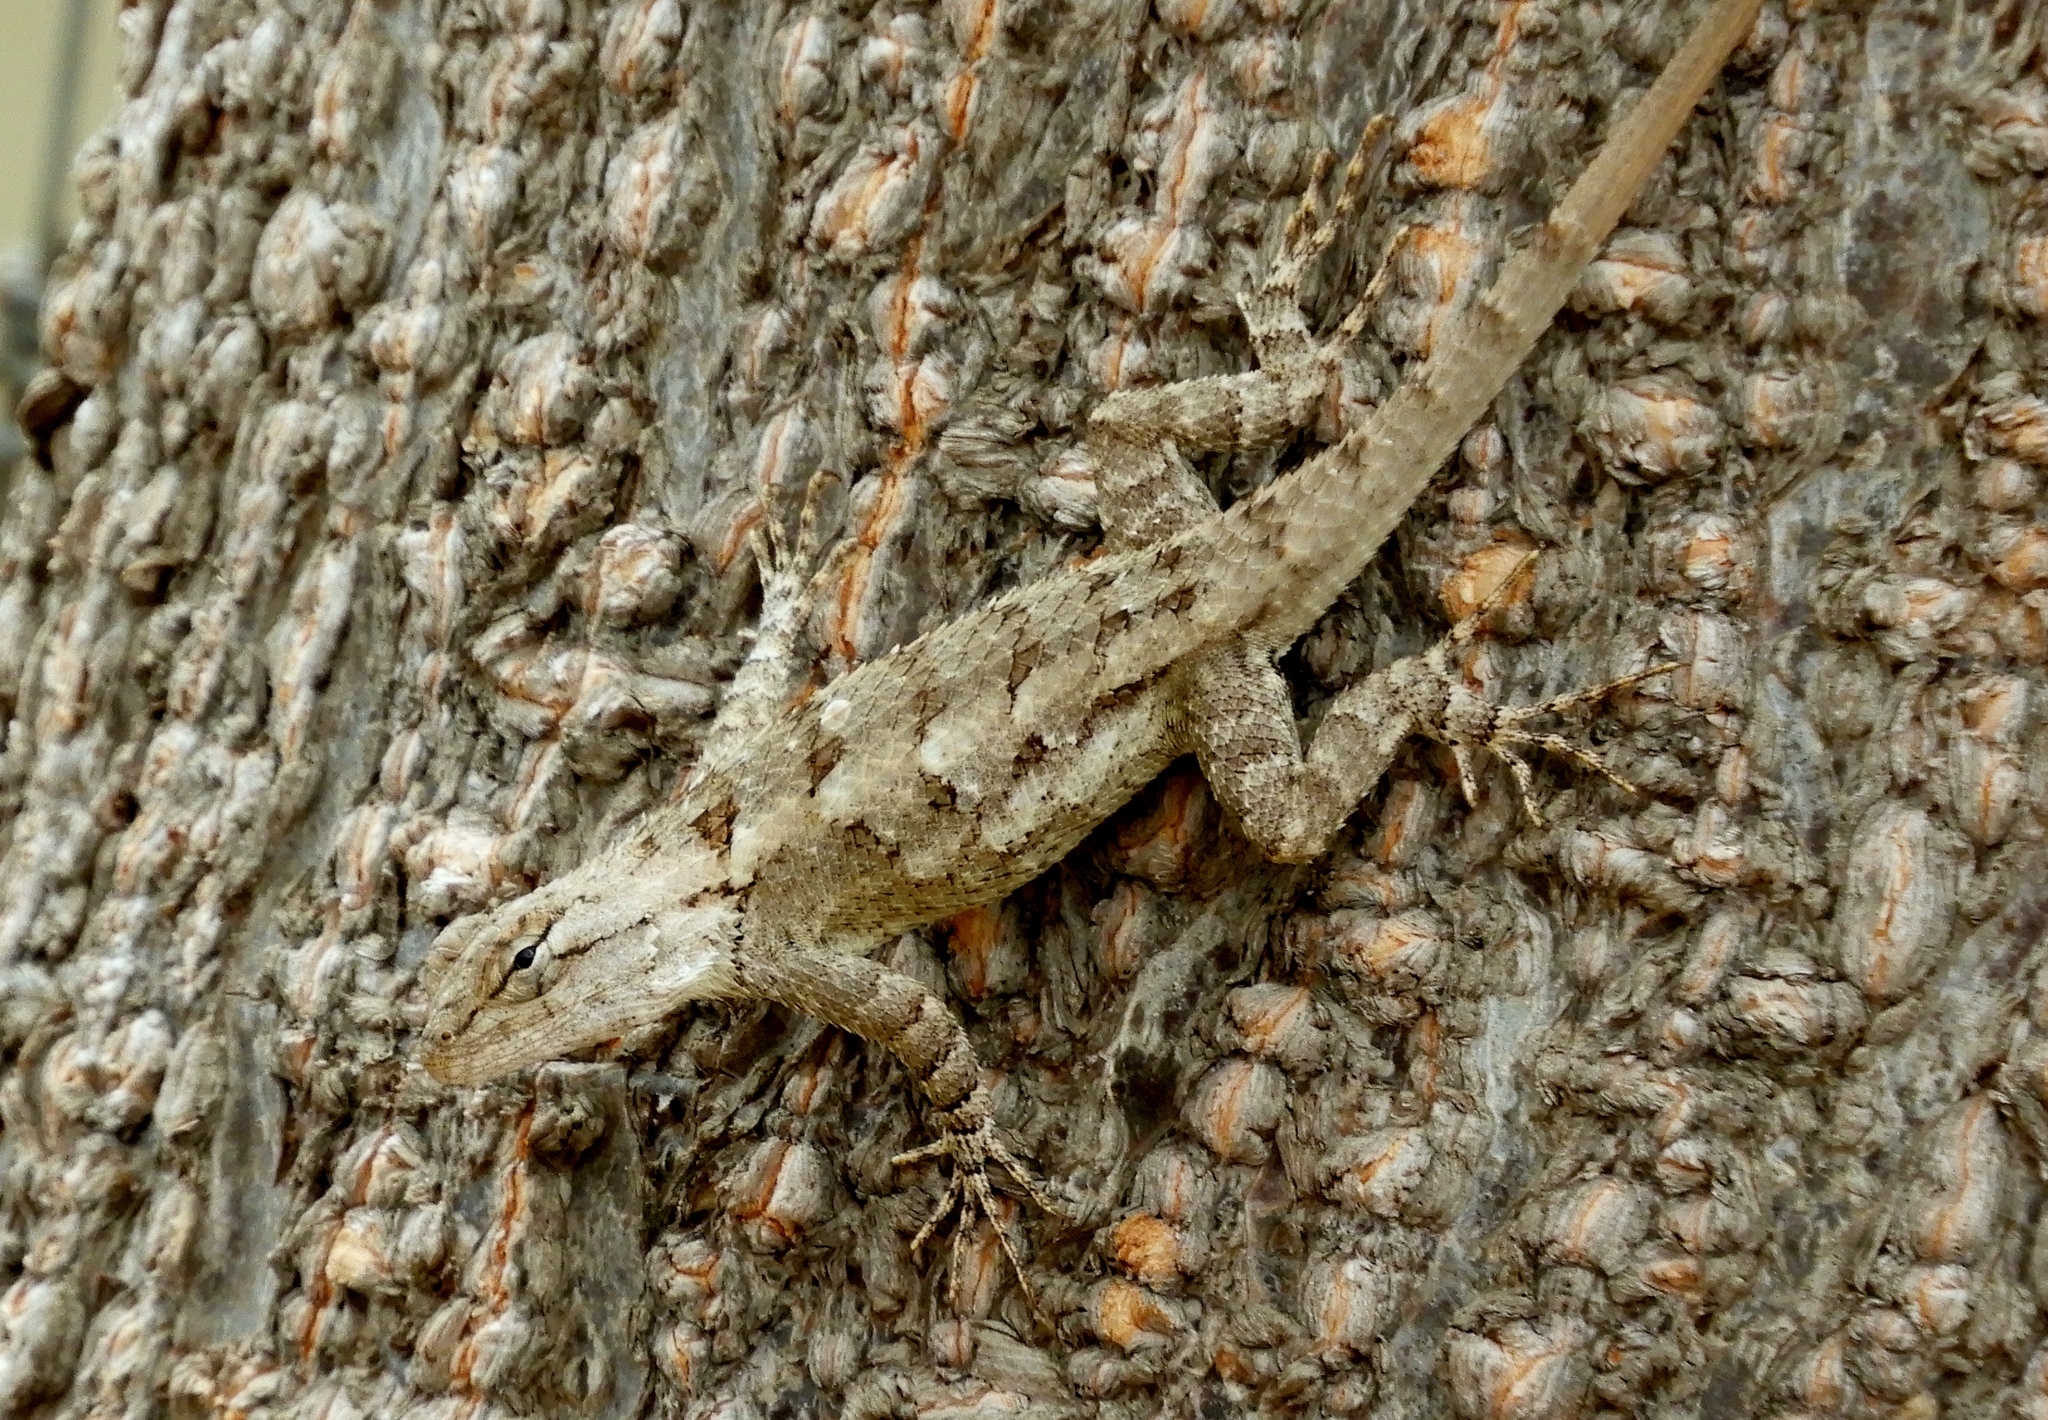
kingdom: Animalia
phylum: Chordata
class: Squamata
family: Phrynosomatidae
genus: Sceloporus
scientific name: Sceloporus clarkii
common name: Clark's spiny lizard
